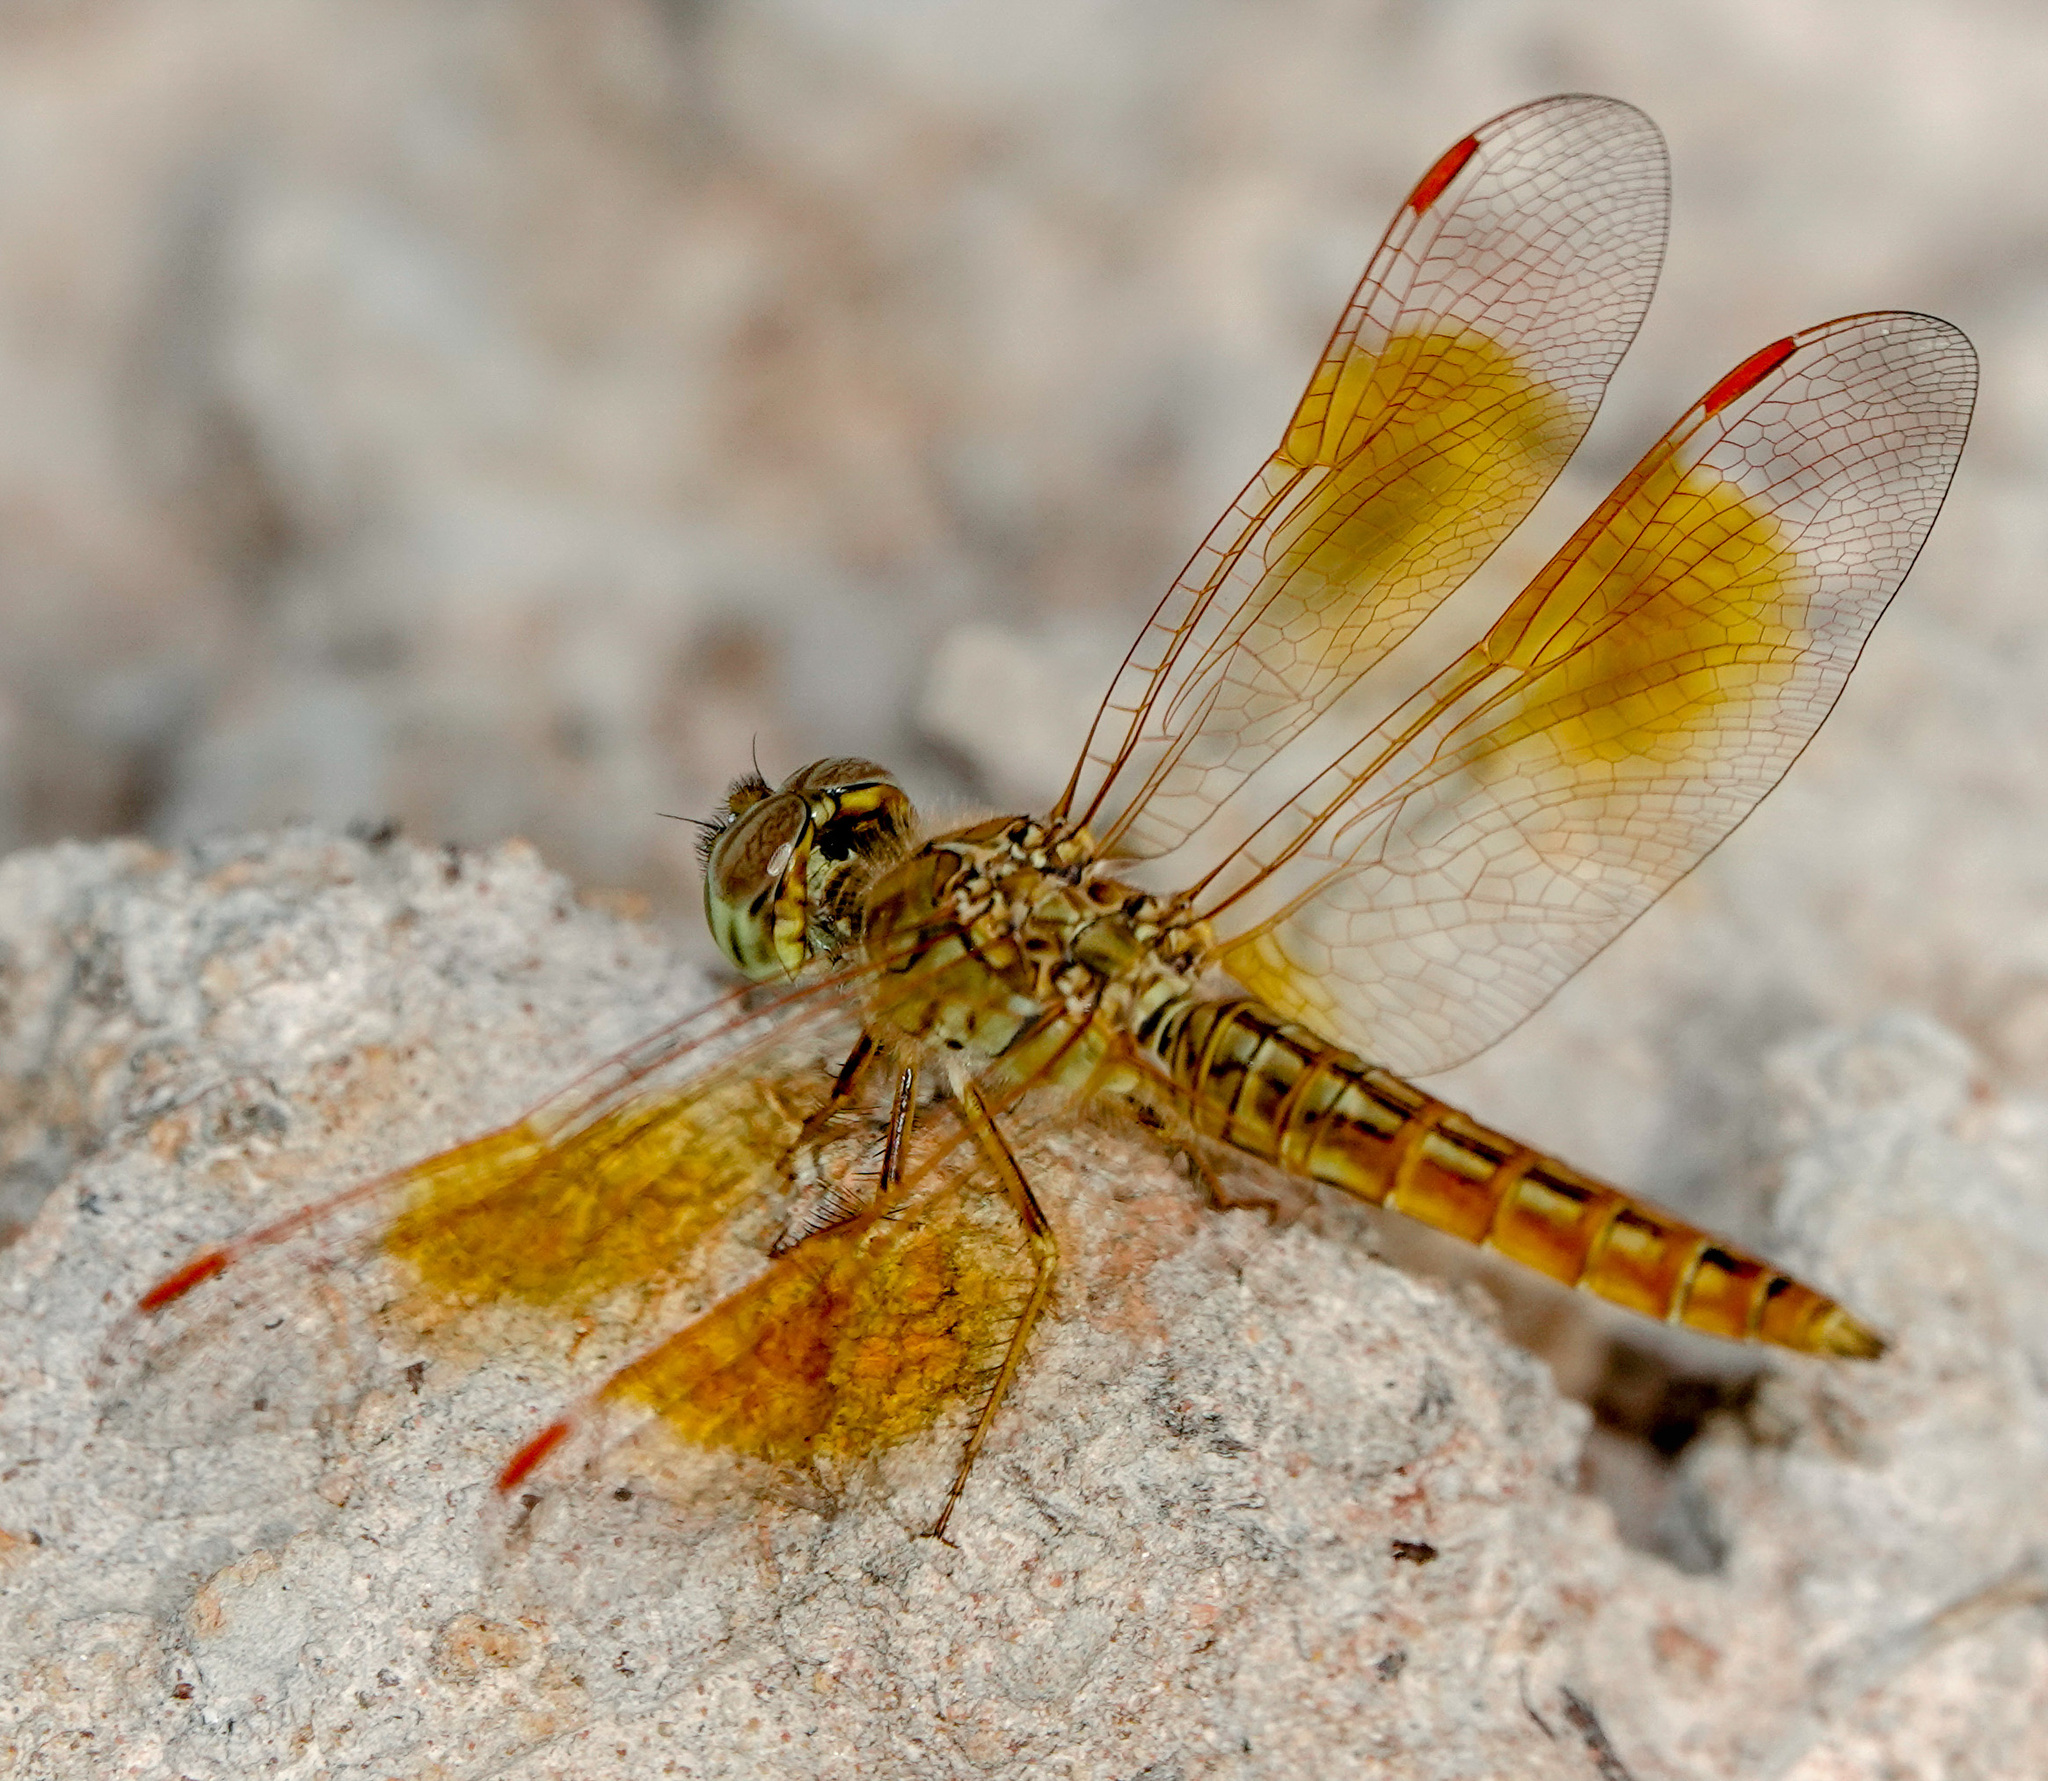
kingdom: Animalia
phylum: Arthropoda
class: Insecta
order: Odonata
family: Libellulidae
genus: Brachythemis
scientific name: Brachythemis contaminata
